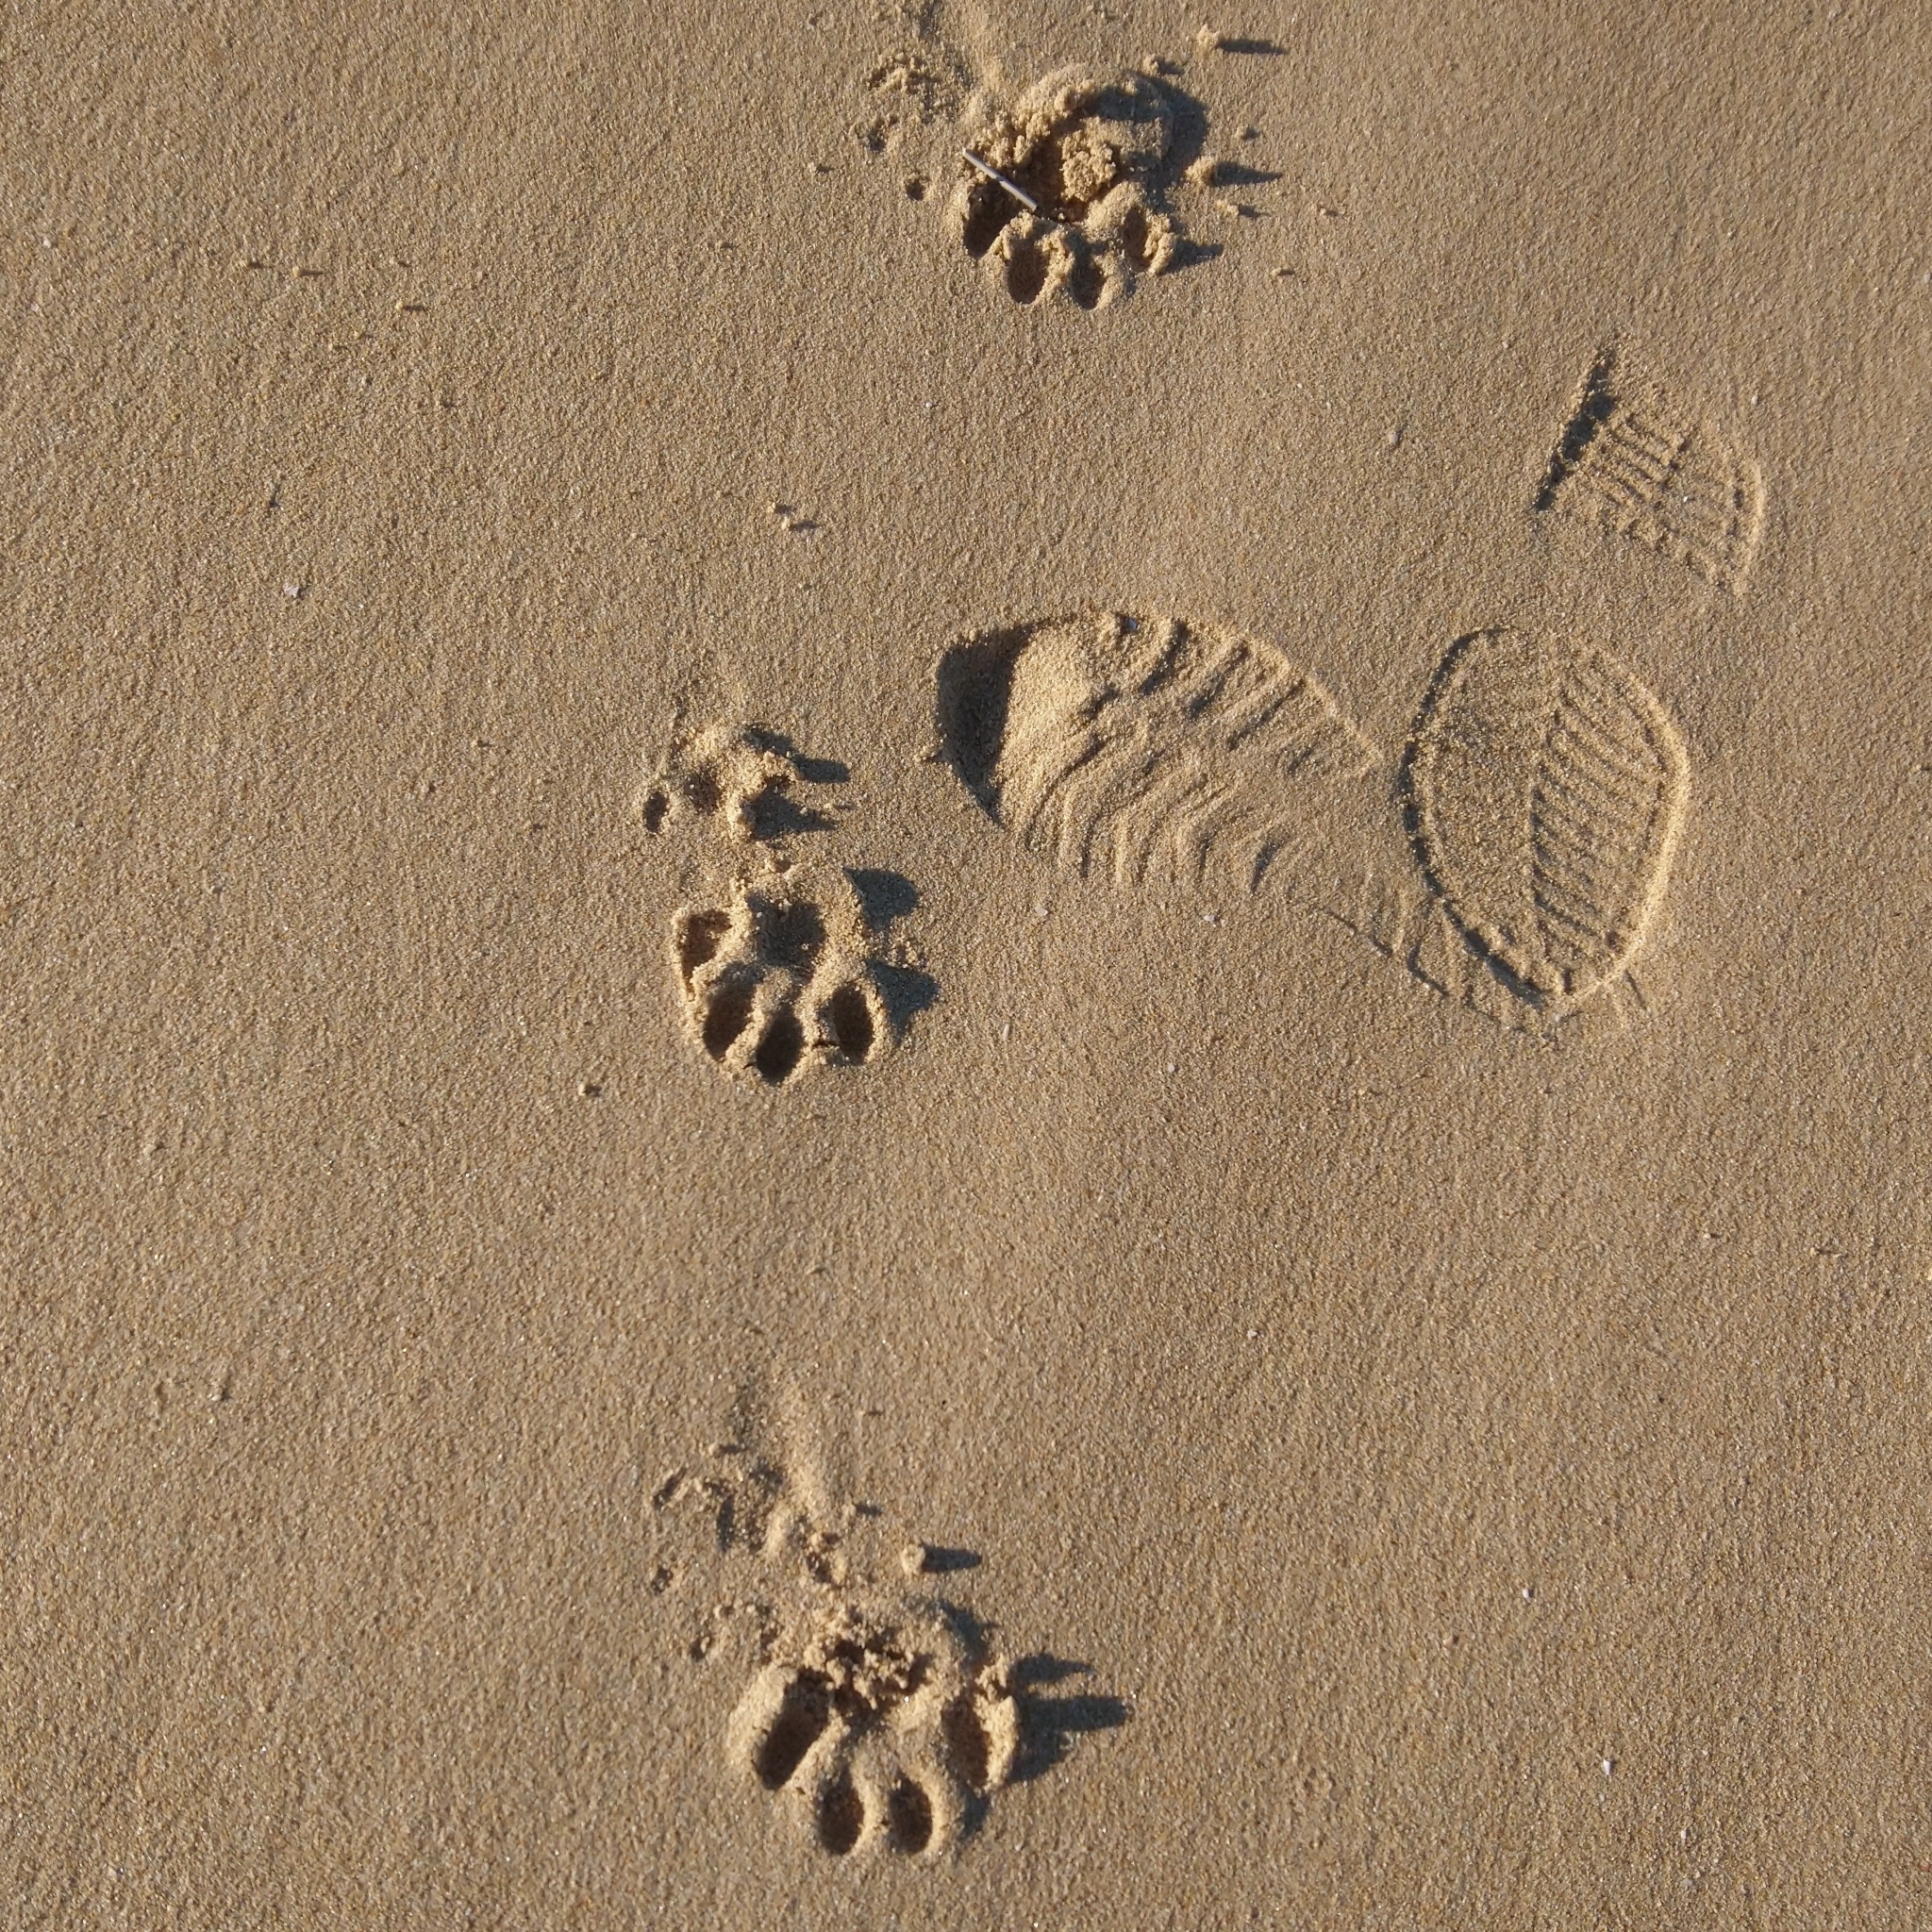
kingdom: Animalia
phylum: Chordata
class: Mammalia
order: Carnivora
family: Mustelidae
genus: Aonyx
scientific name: Aonyx capensis
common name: African clawless otter
